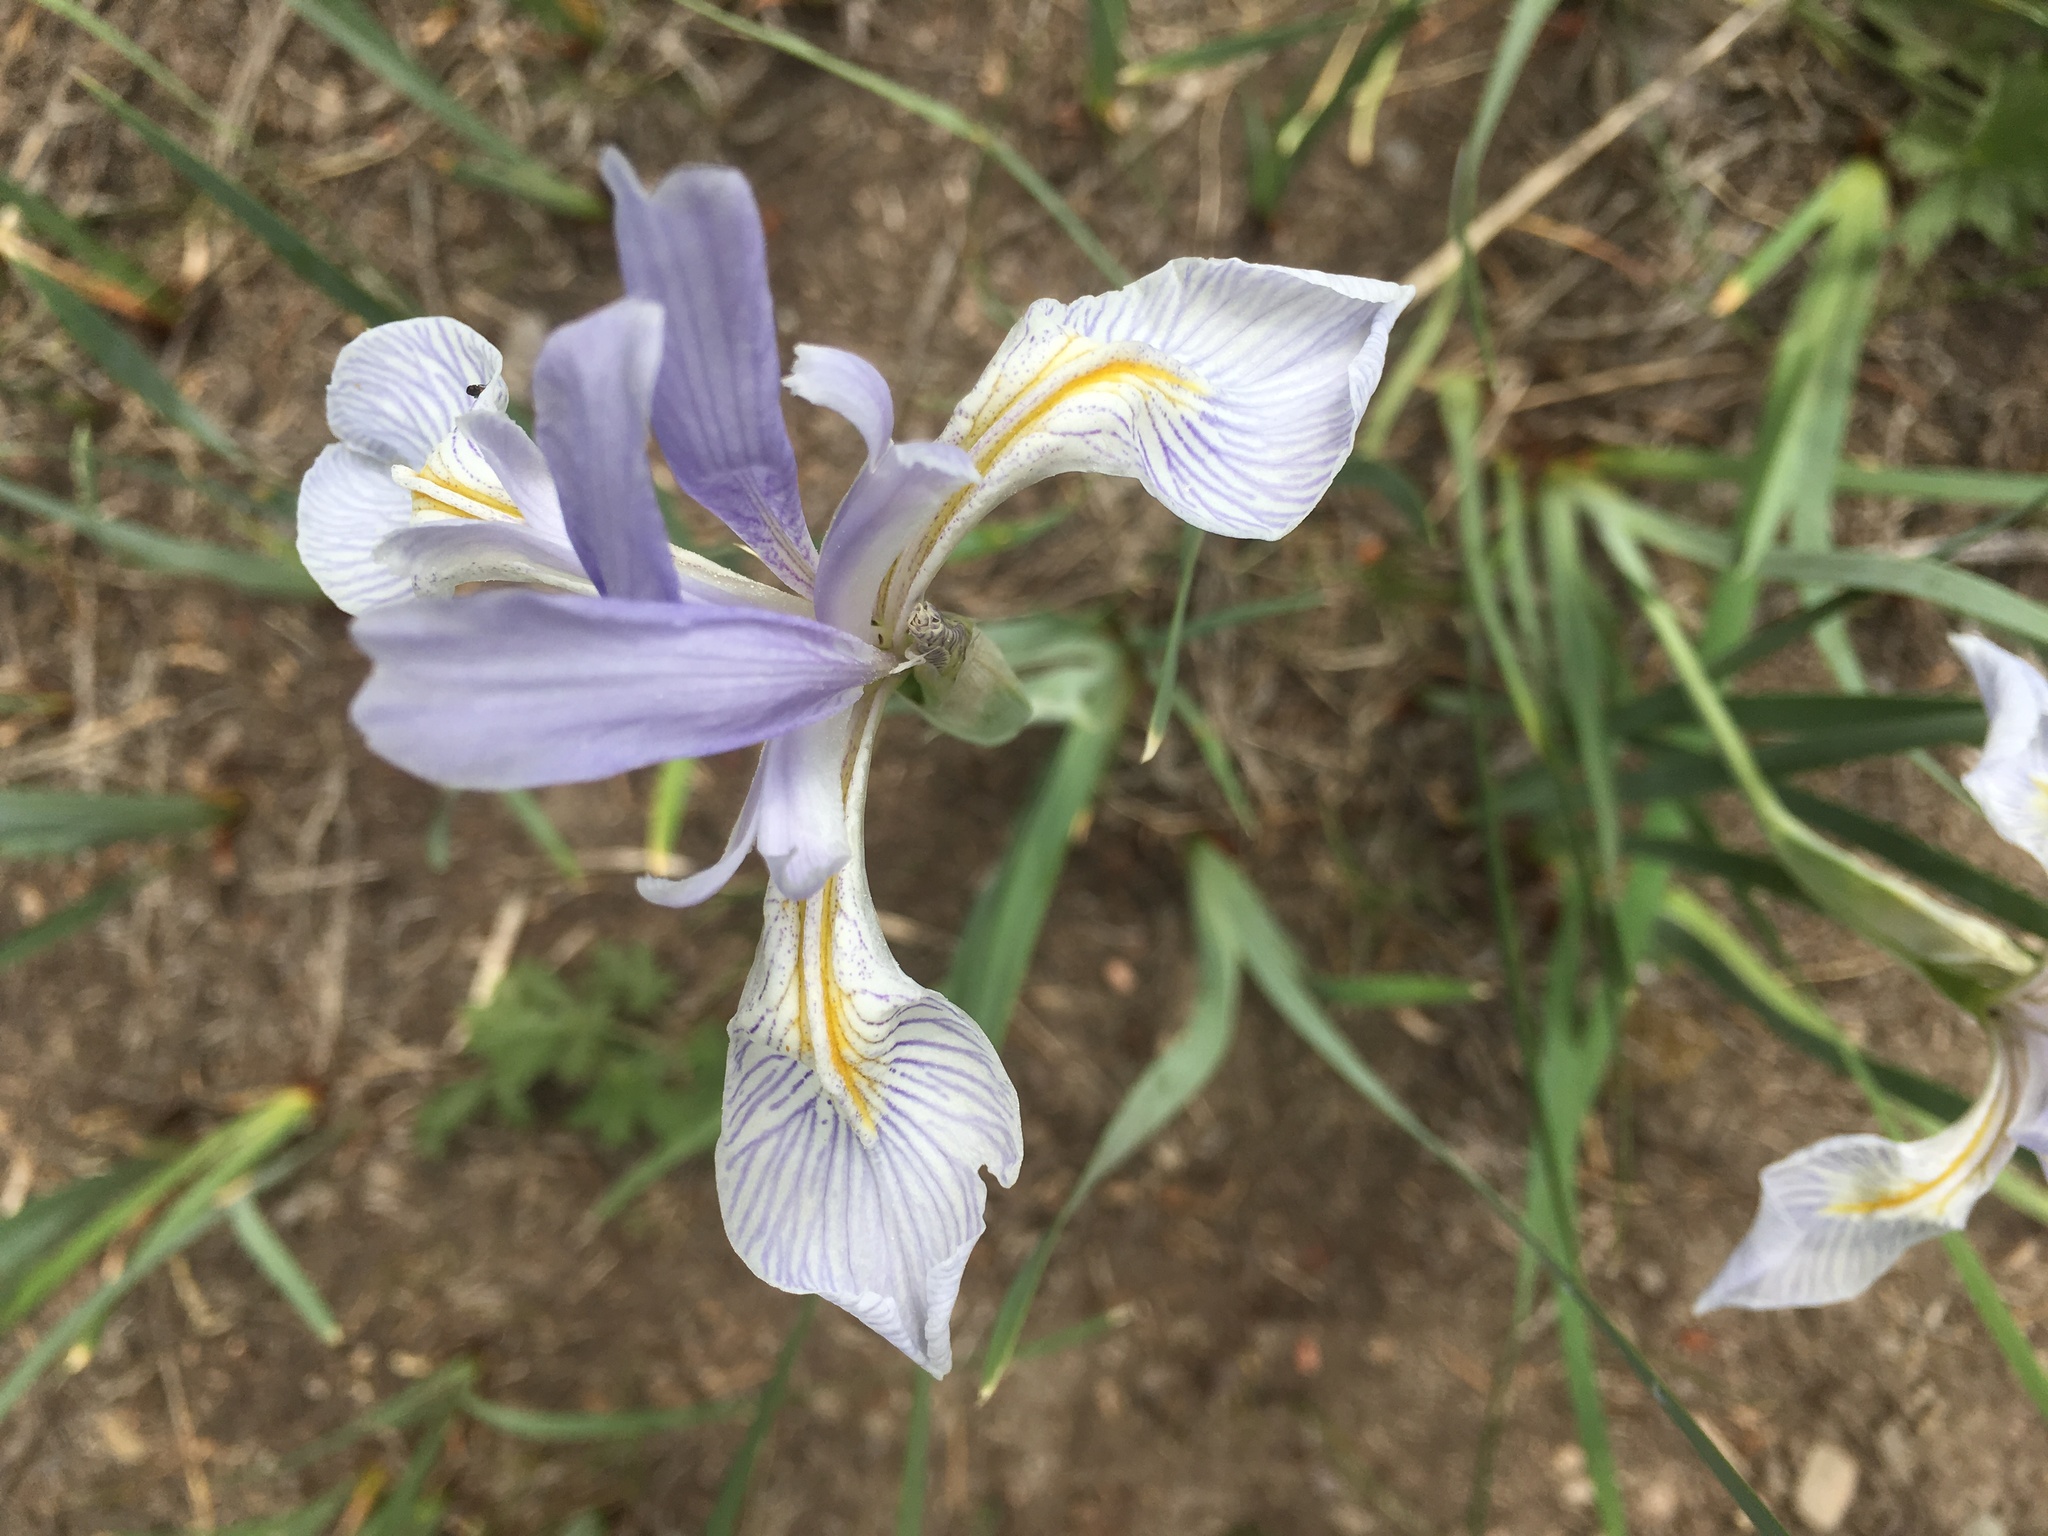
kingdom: Plantae
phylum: Tracheophyta
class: Liliopsida
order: Asparagales
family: Iridaceae
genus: Iris
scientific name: Iris missouriensis
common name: Rocky mountain iris
